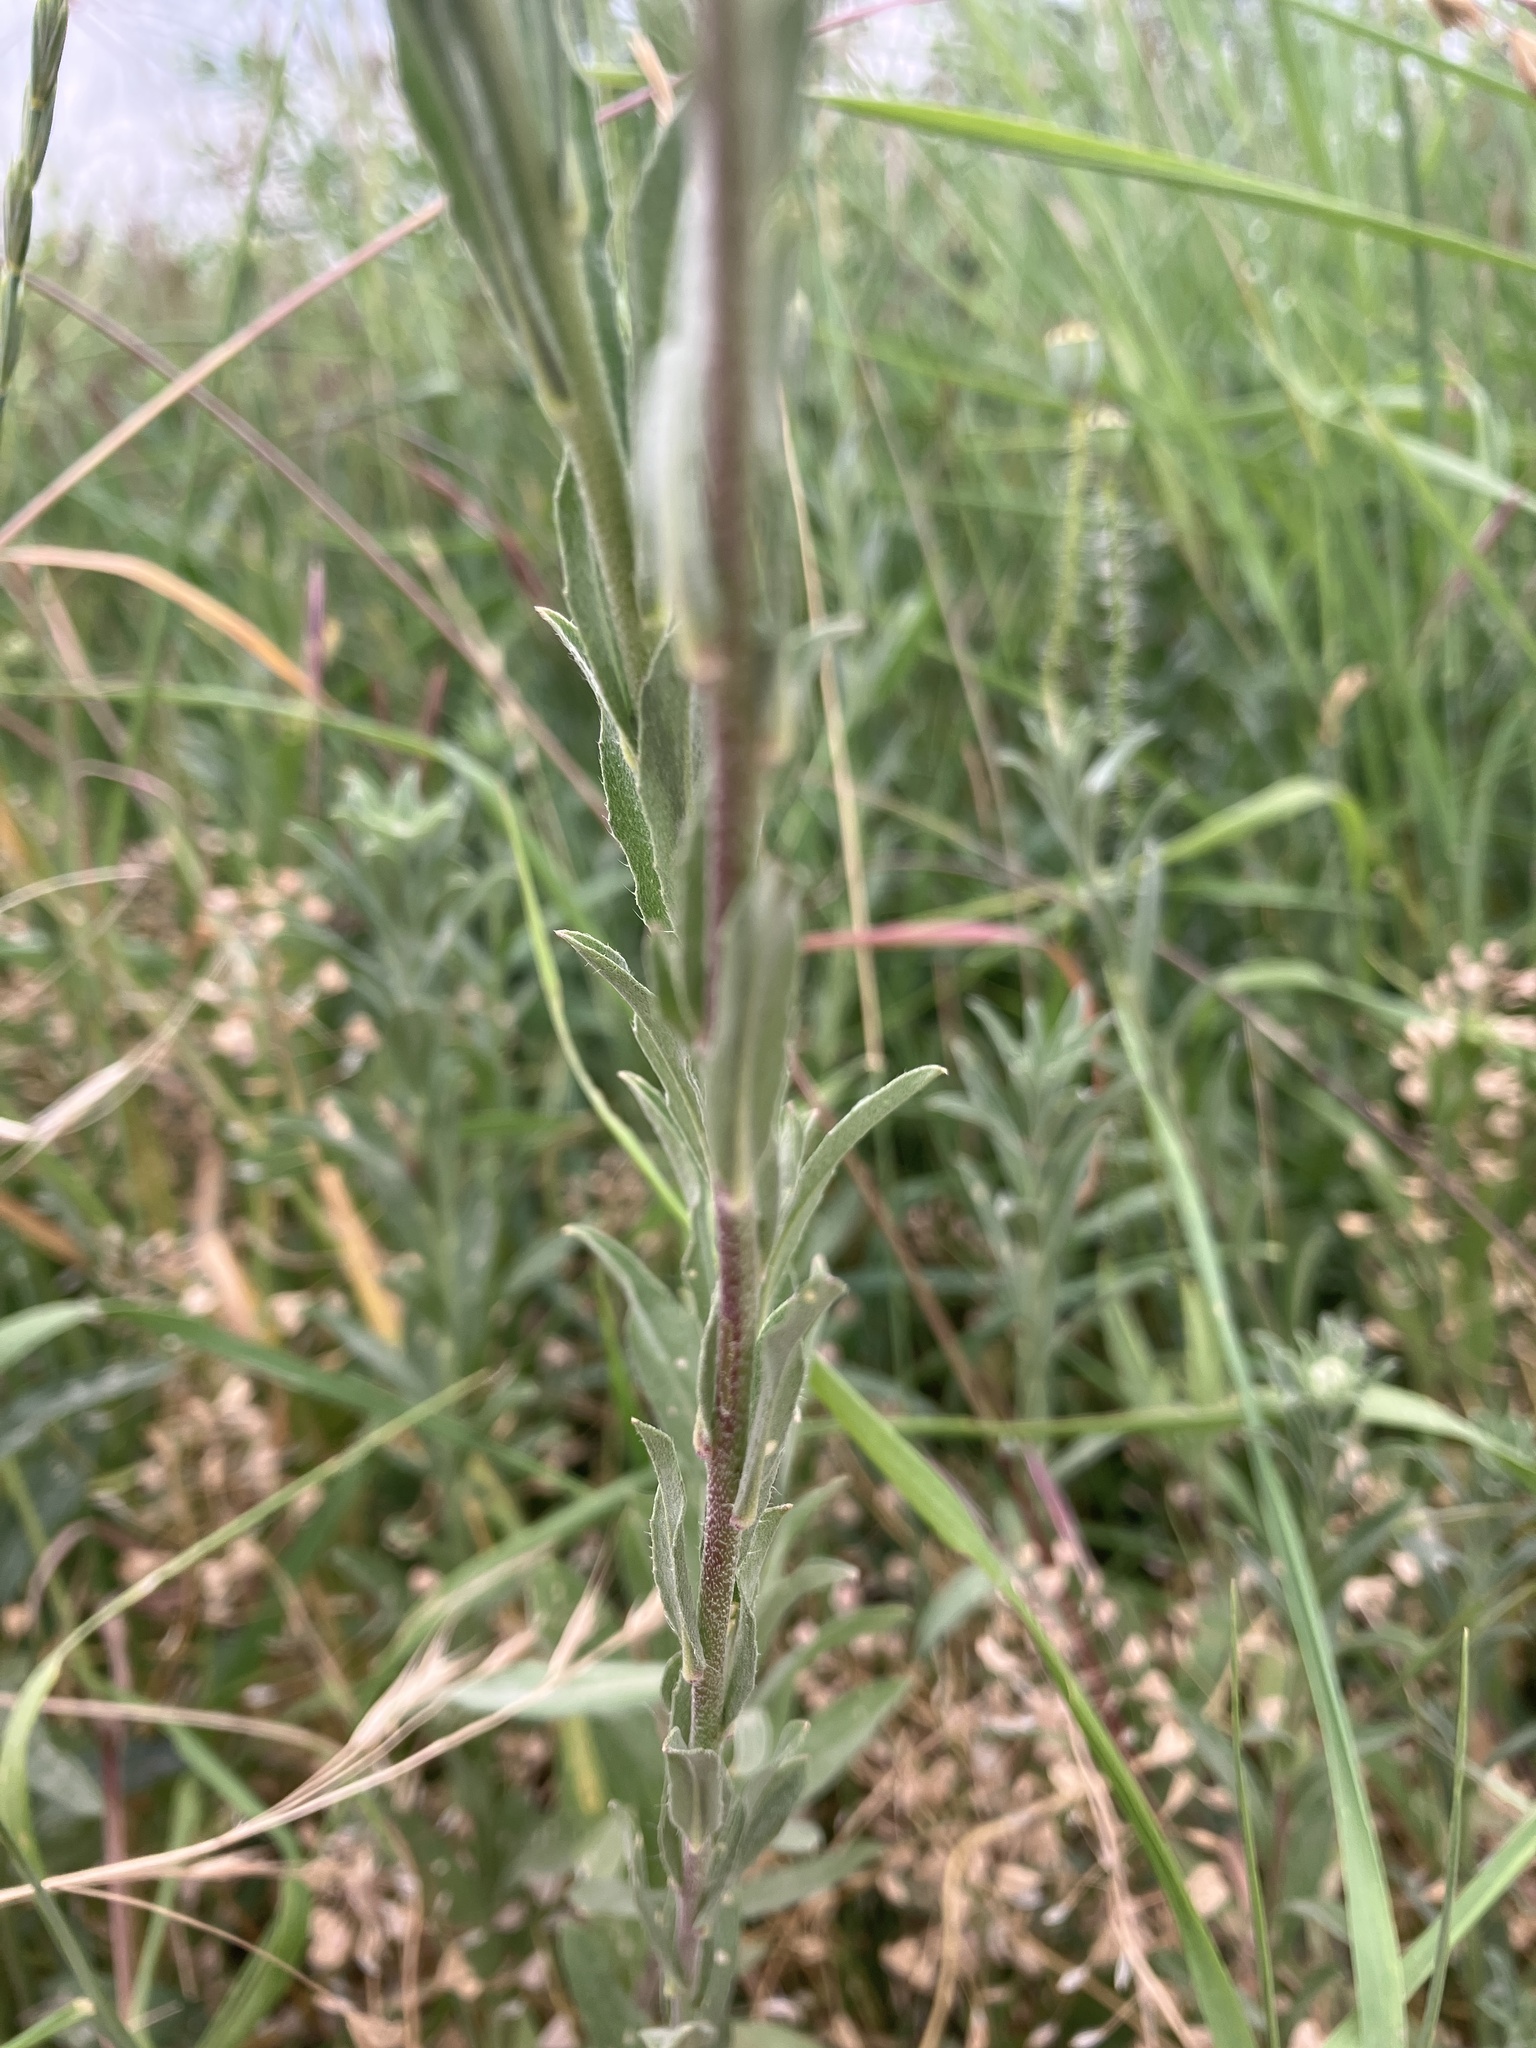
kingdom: Plantae
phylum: Tracheophyta
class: Magnoliopsida
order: Brassicales
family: Brassicaceae
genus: Berteroa
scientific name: Berteroa incana
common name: Hoary alison
